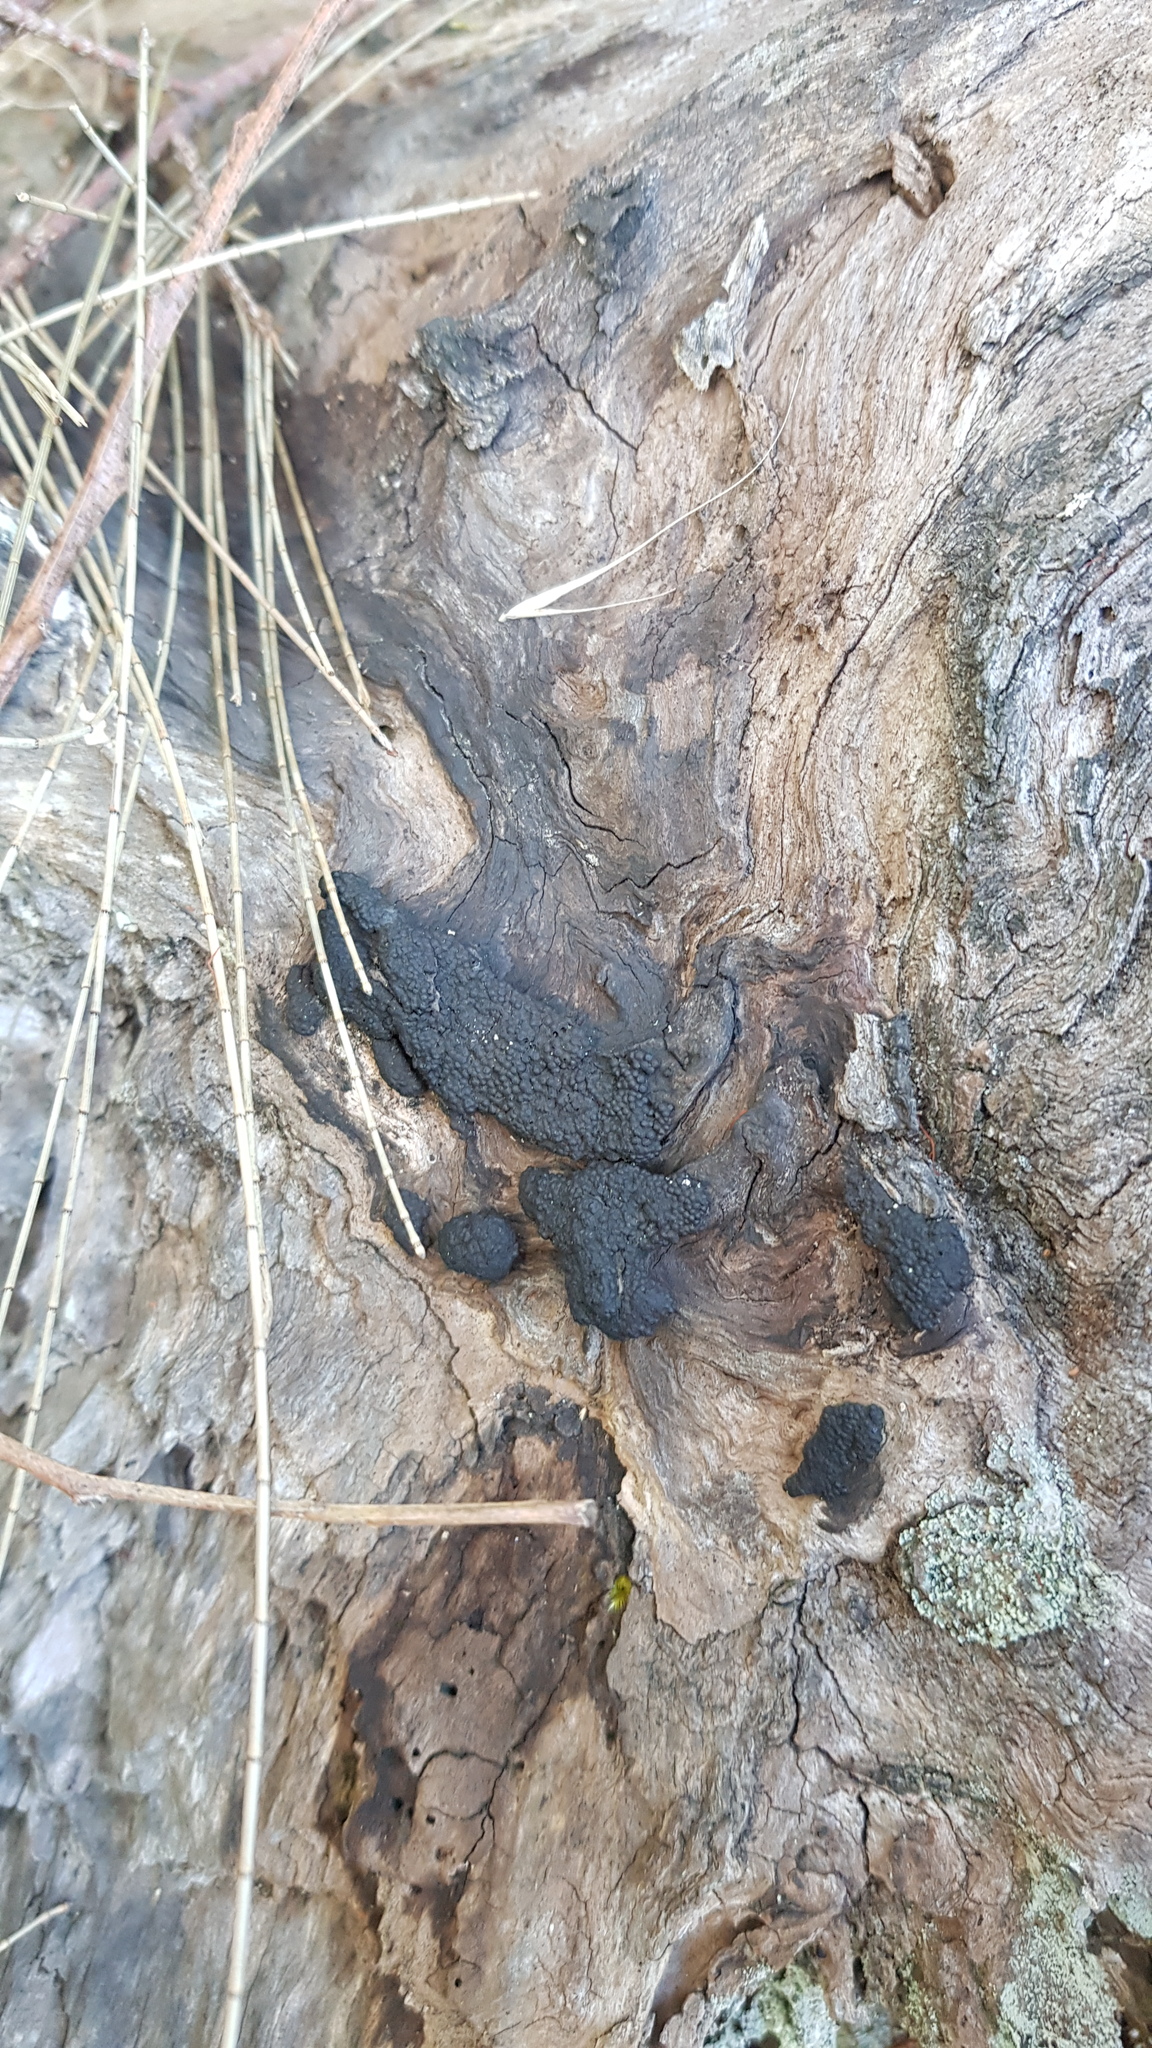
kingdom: Fungi
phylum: Ascomycota
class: Sordariomycetes
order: Xylariales
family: Hypoxylaceae
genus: Annulohypoxylon
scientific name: Annulohypoxylon bovei
